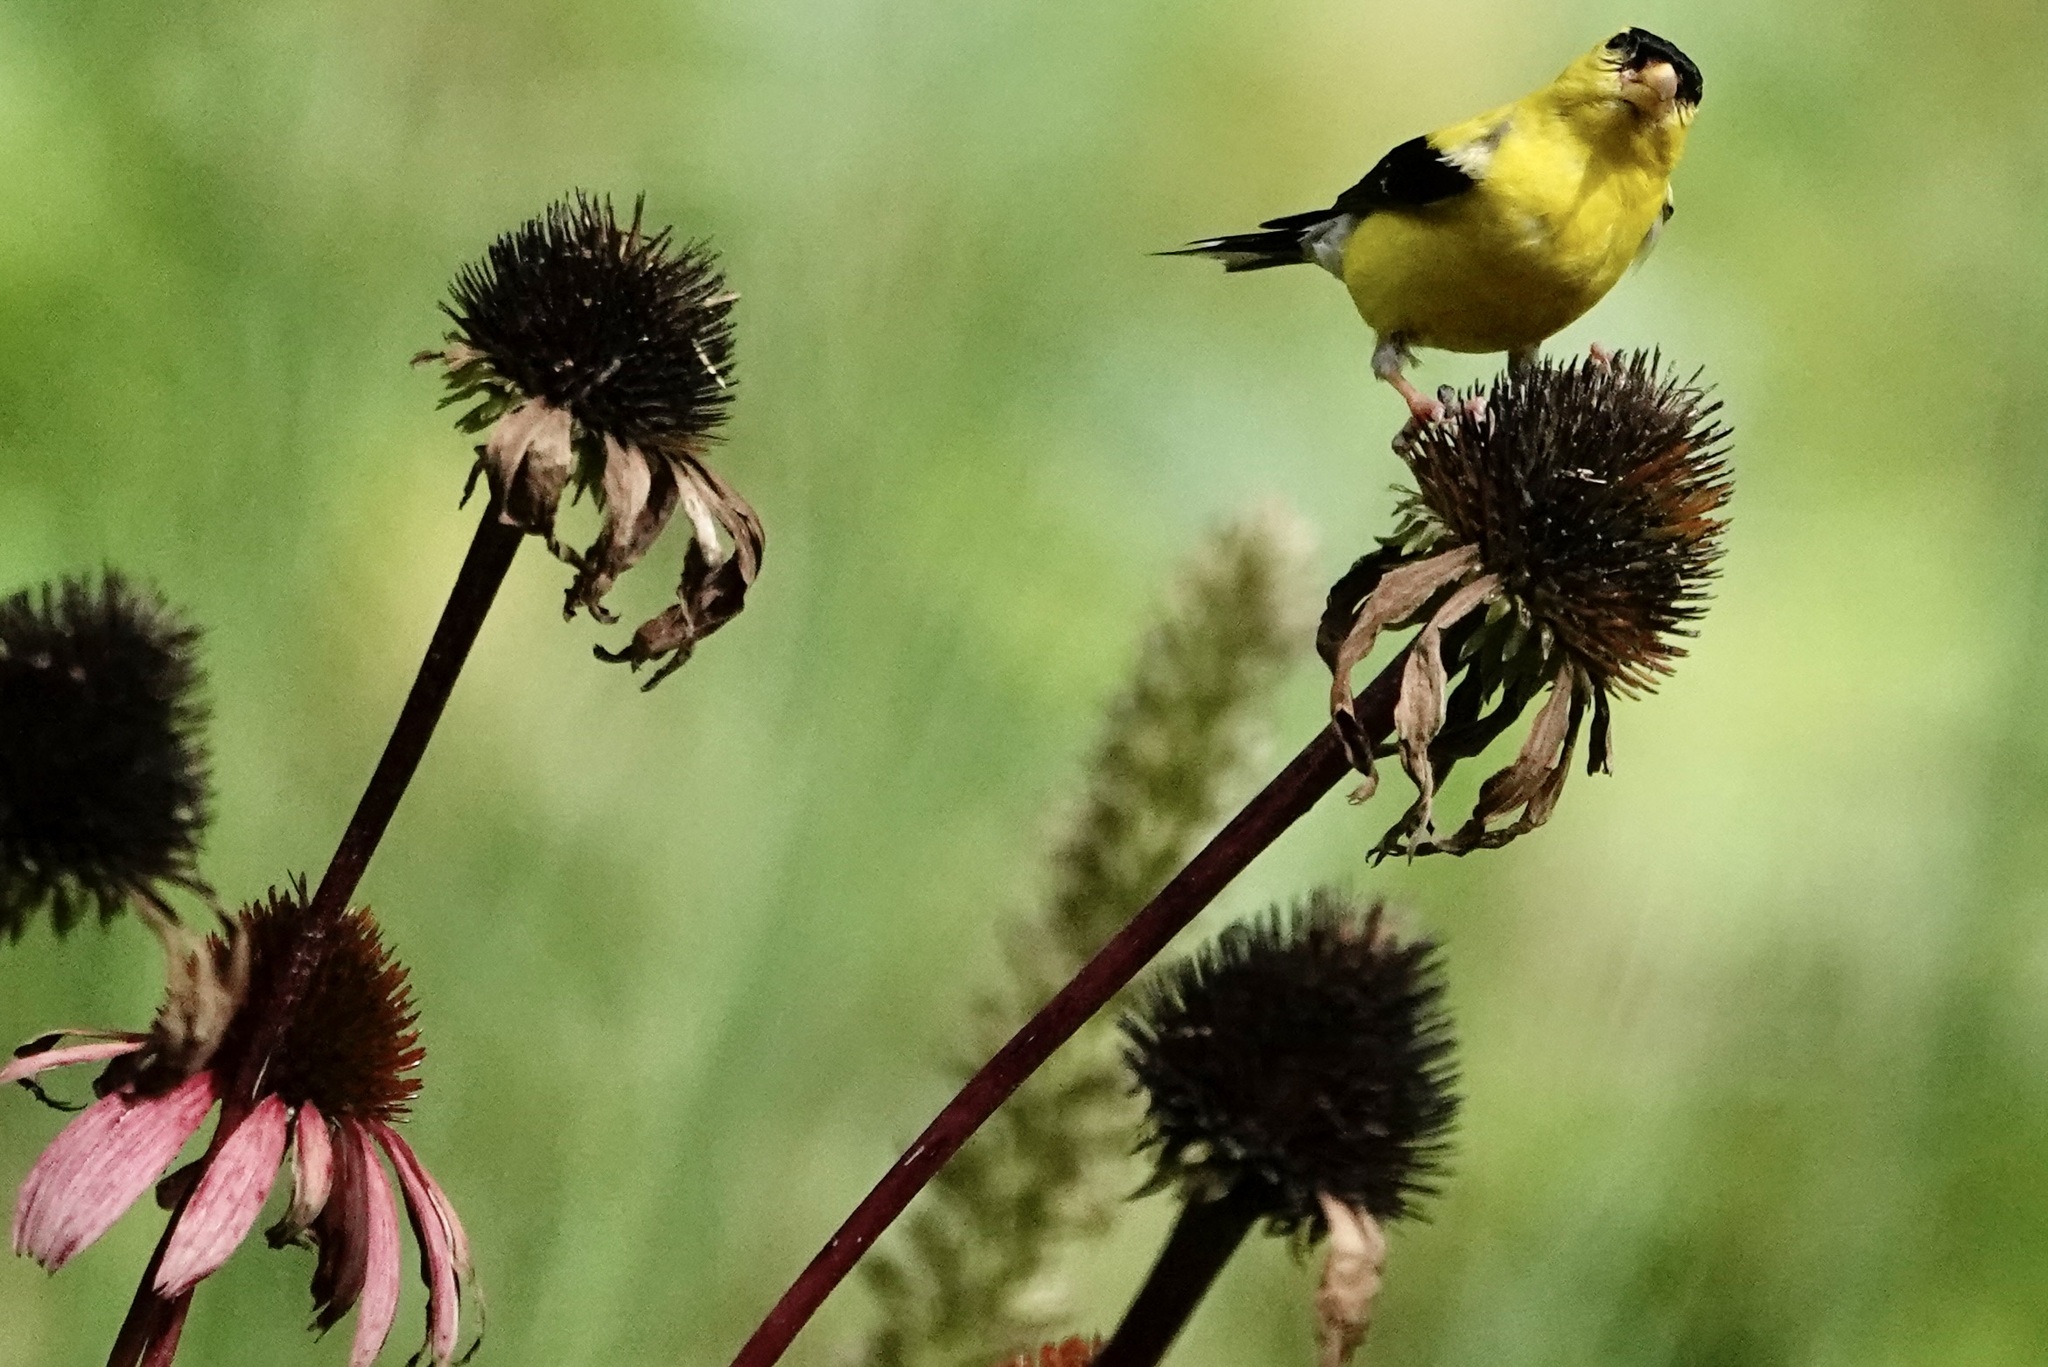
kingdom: Animalia
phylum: Chordata
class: Aves
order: Passeriformes
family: Fringillidae
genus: Spinus
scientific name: Spinus tristis
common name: American goldfinch
